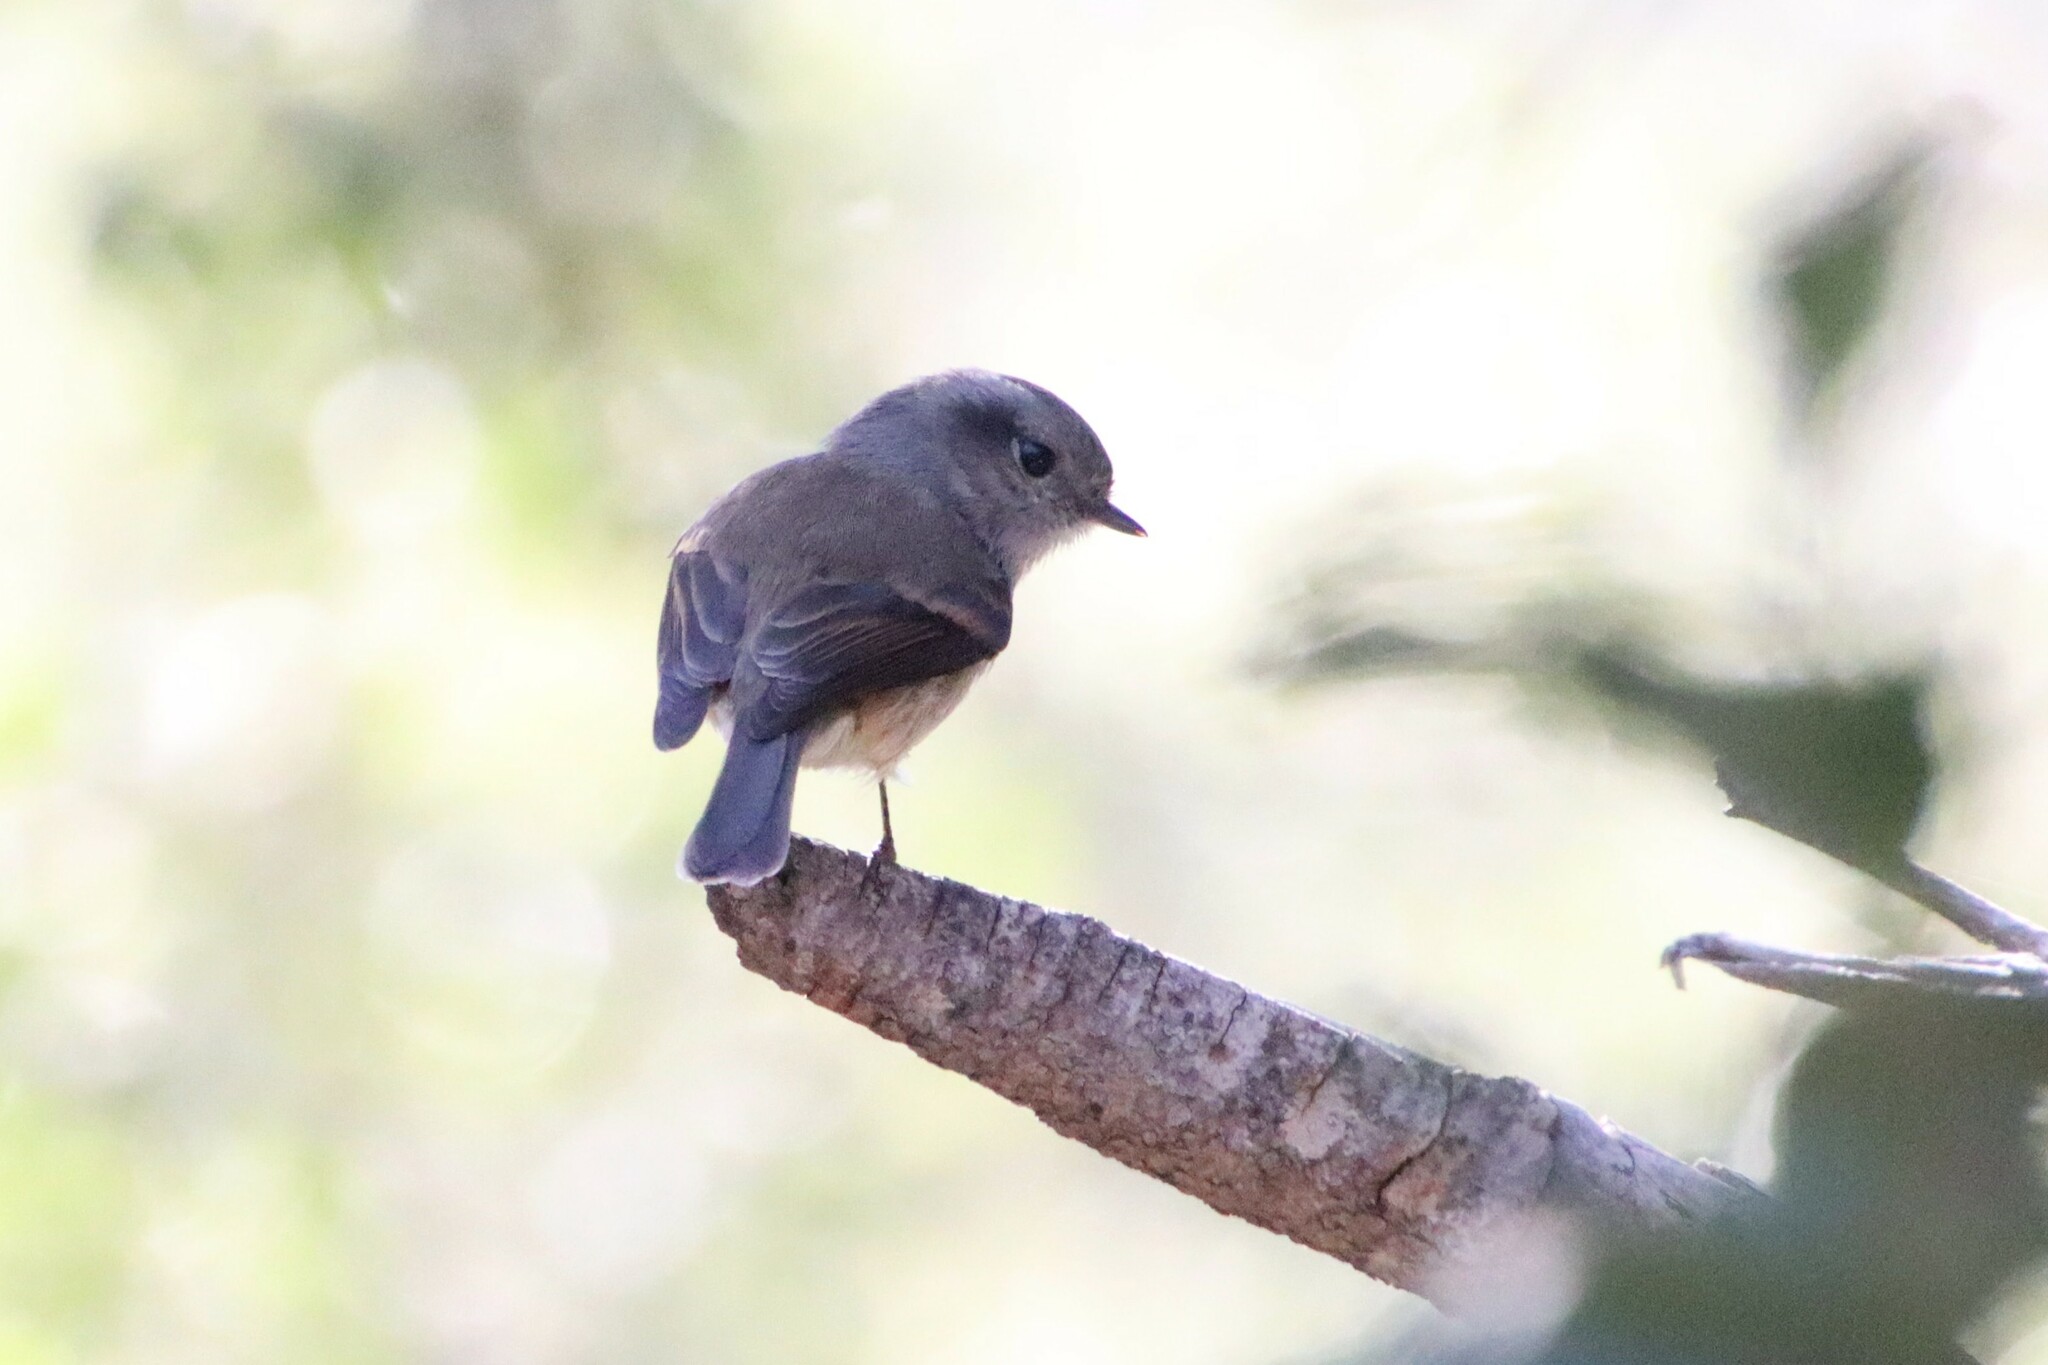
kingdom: Animalia
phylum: Chordata
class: Aves
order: Passeriformes
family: Tyrannidae
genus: Colorhamphus
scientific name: Colorhamphus parvirostris
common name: Patagonian tyrant
